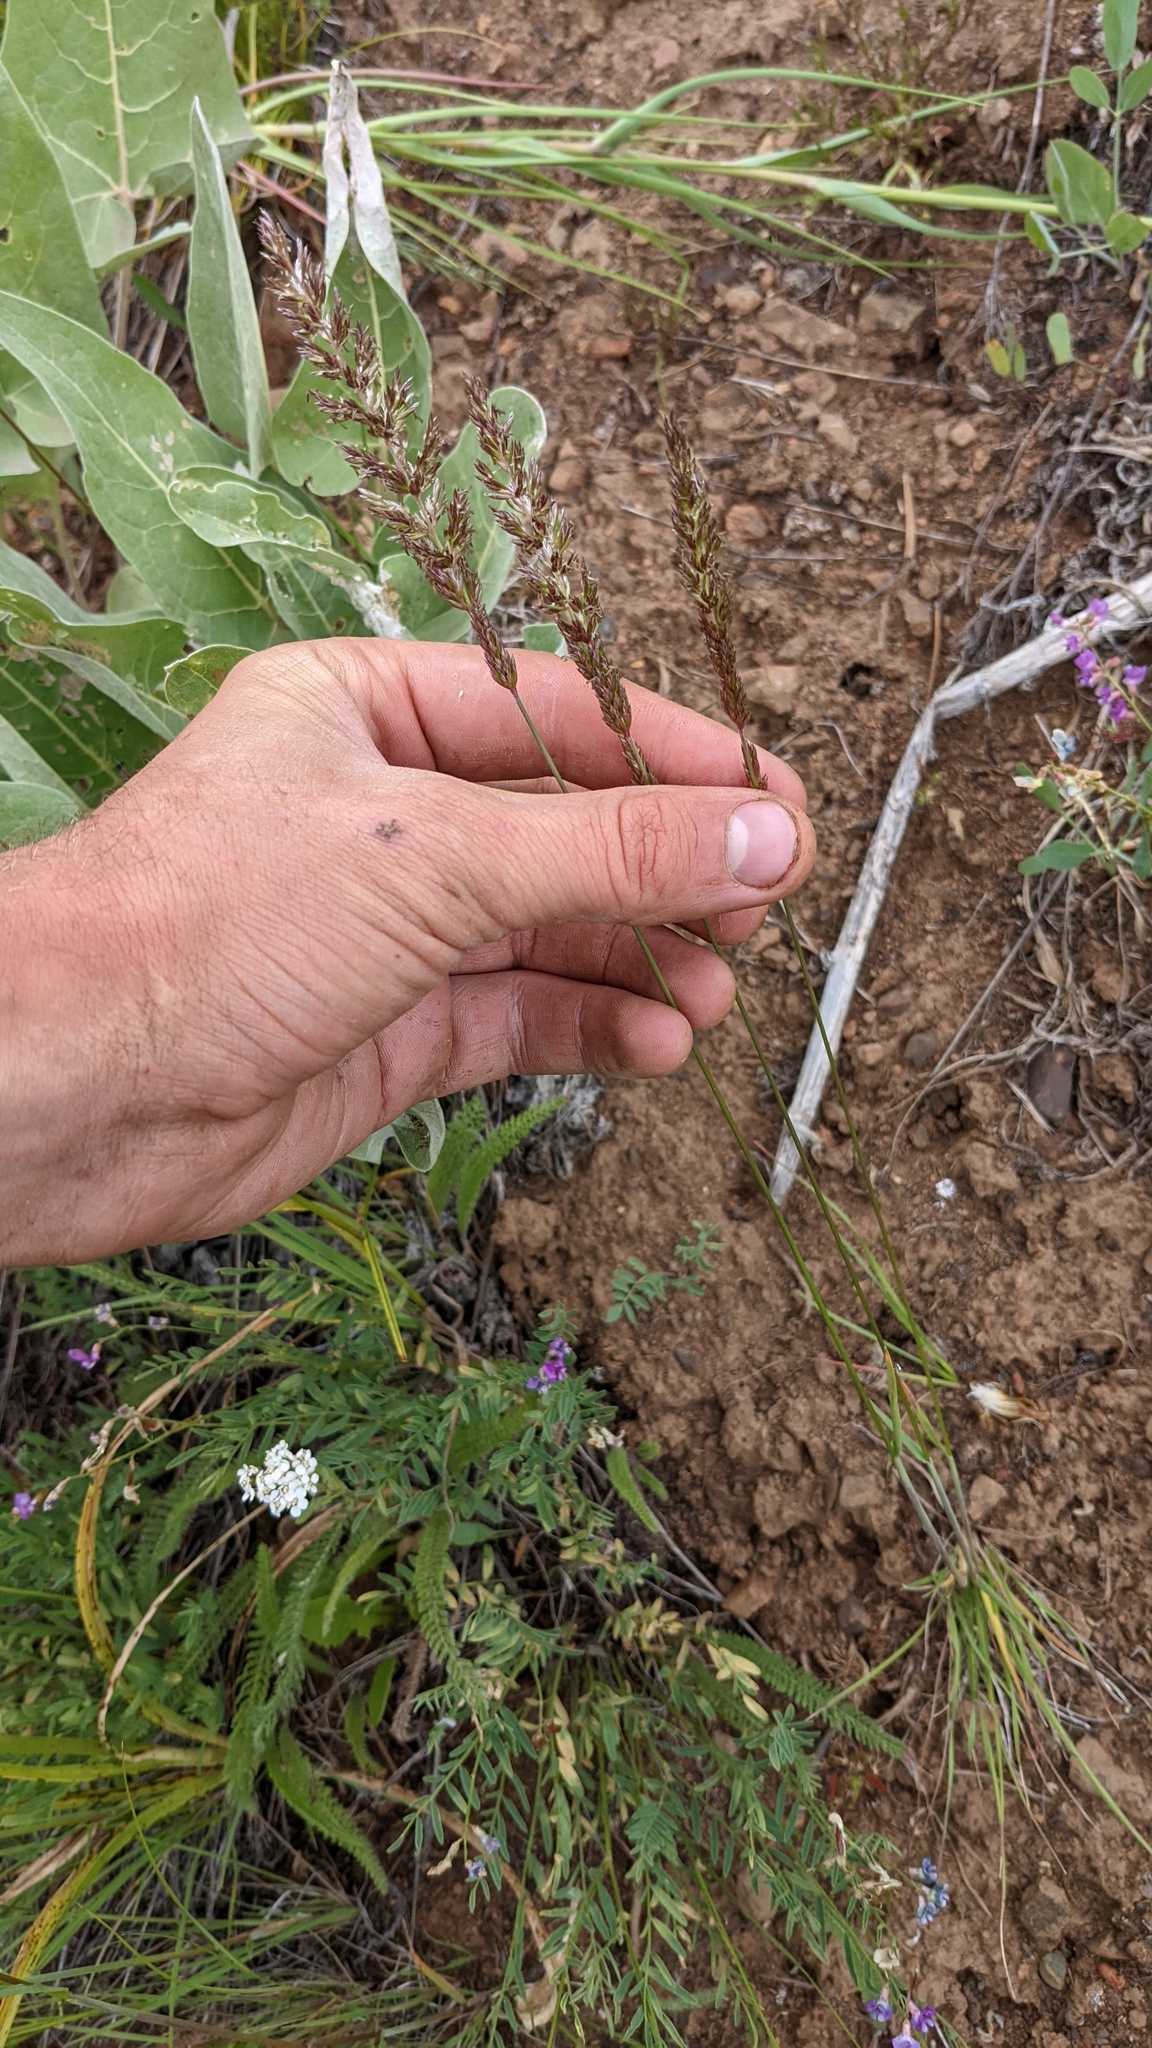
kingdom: Plantae
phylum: Tracheophyta
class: Liliopsida
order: Poales
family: Poaceae
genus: Koeleria
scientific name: Koeleria macrantha
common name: Crested hair-grass
